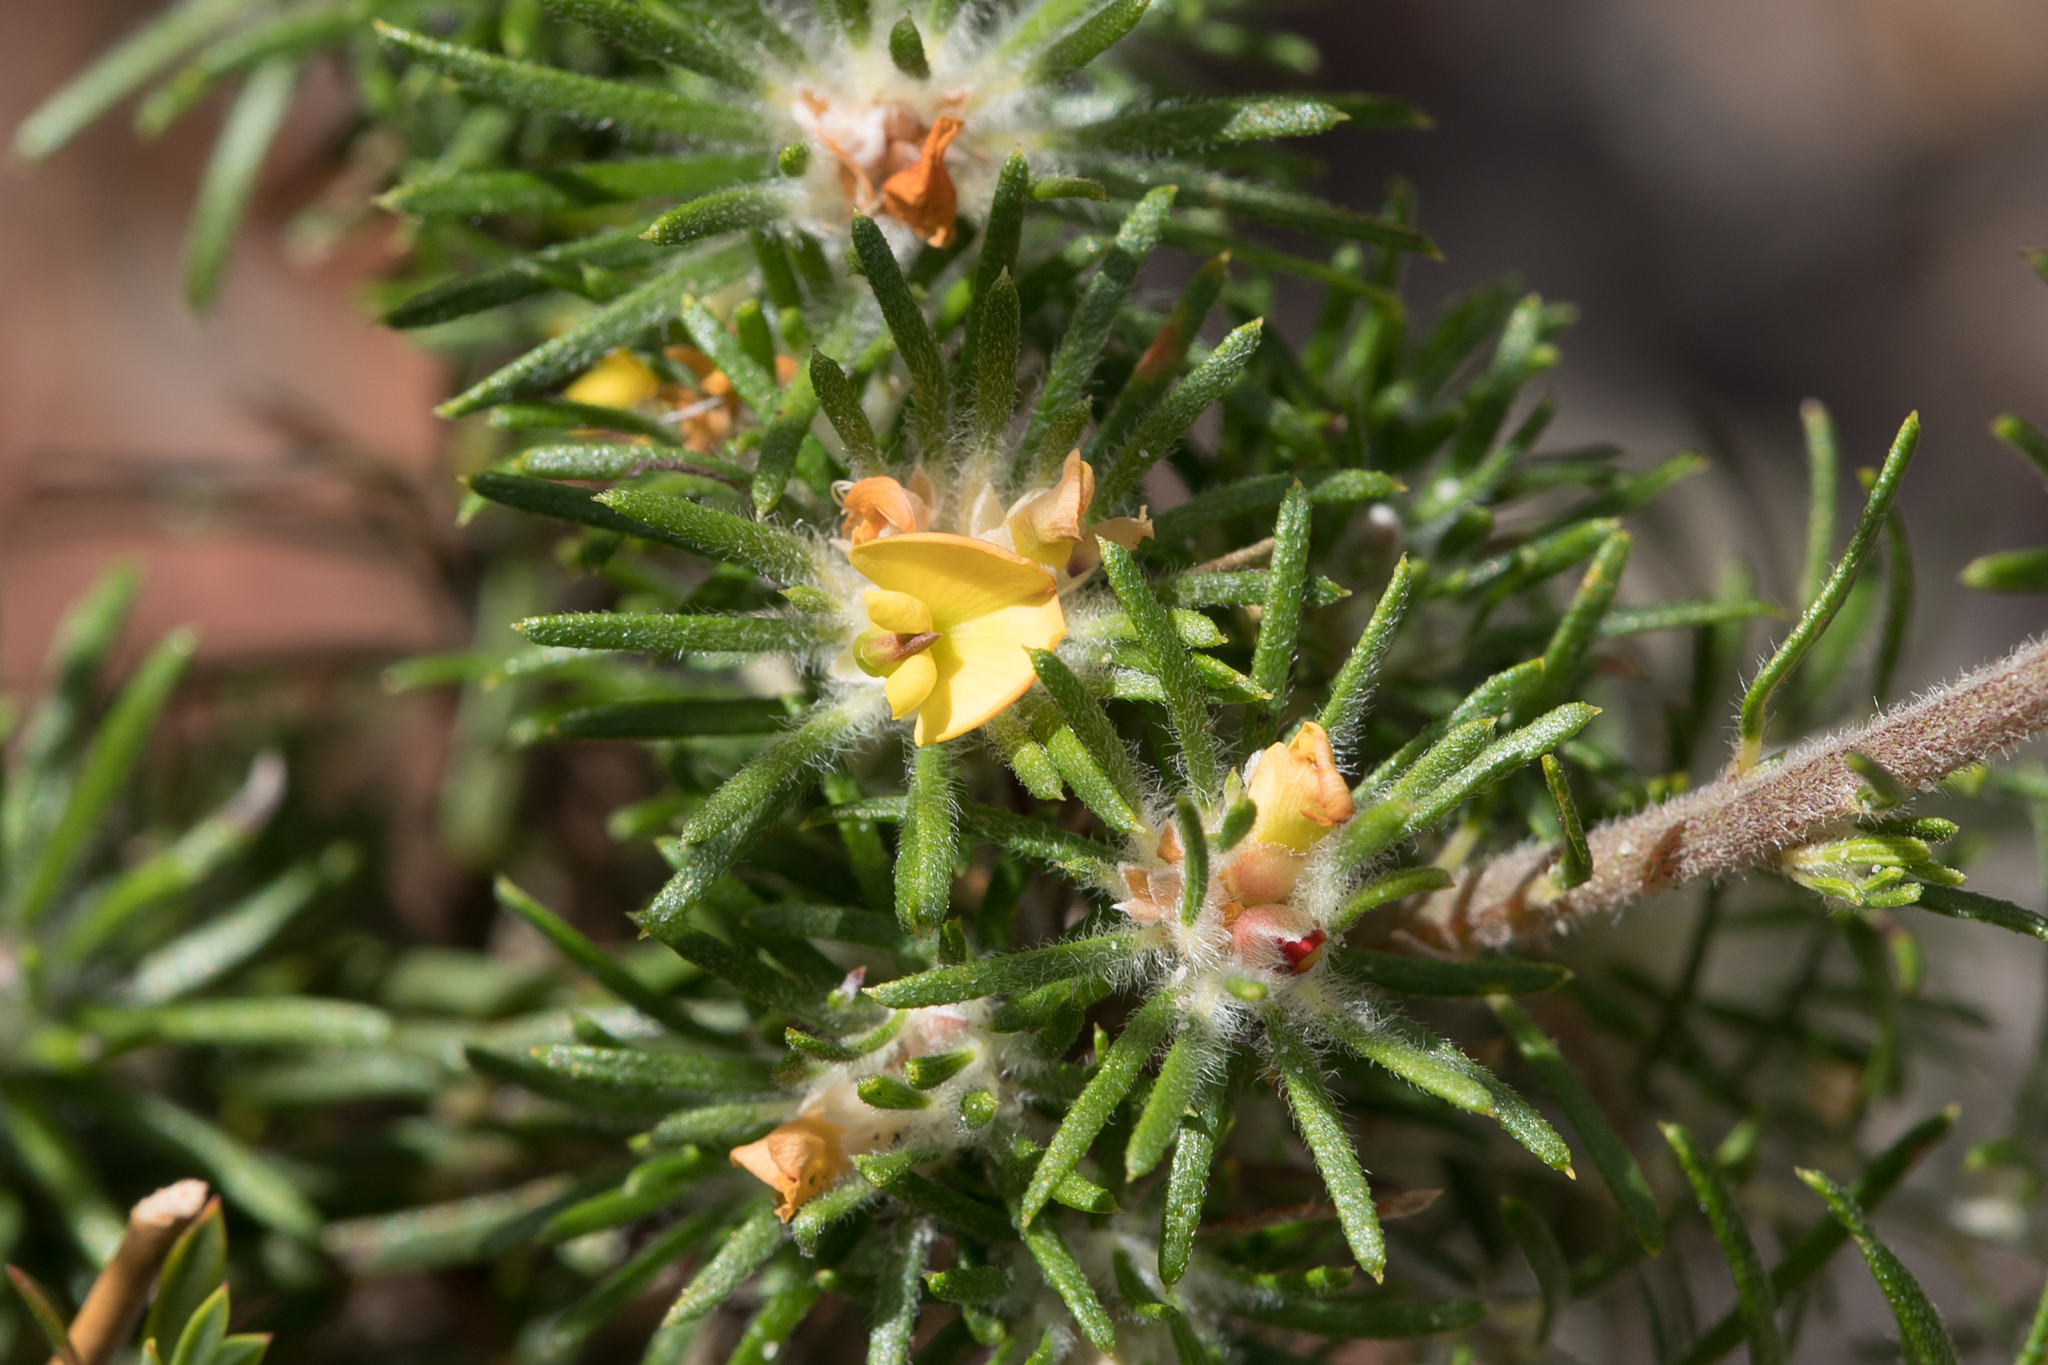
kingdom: Plantae
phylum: Tracheophyta
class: Magnoliopsida
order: Fabales
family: Fabaceae
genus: Phyllota
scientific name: Phyllota pleurandroides
